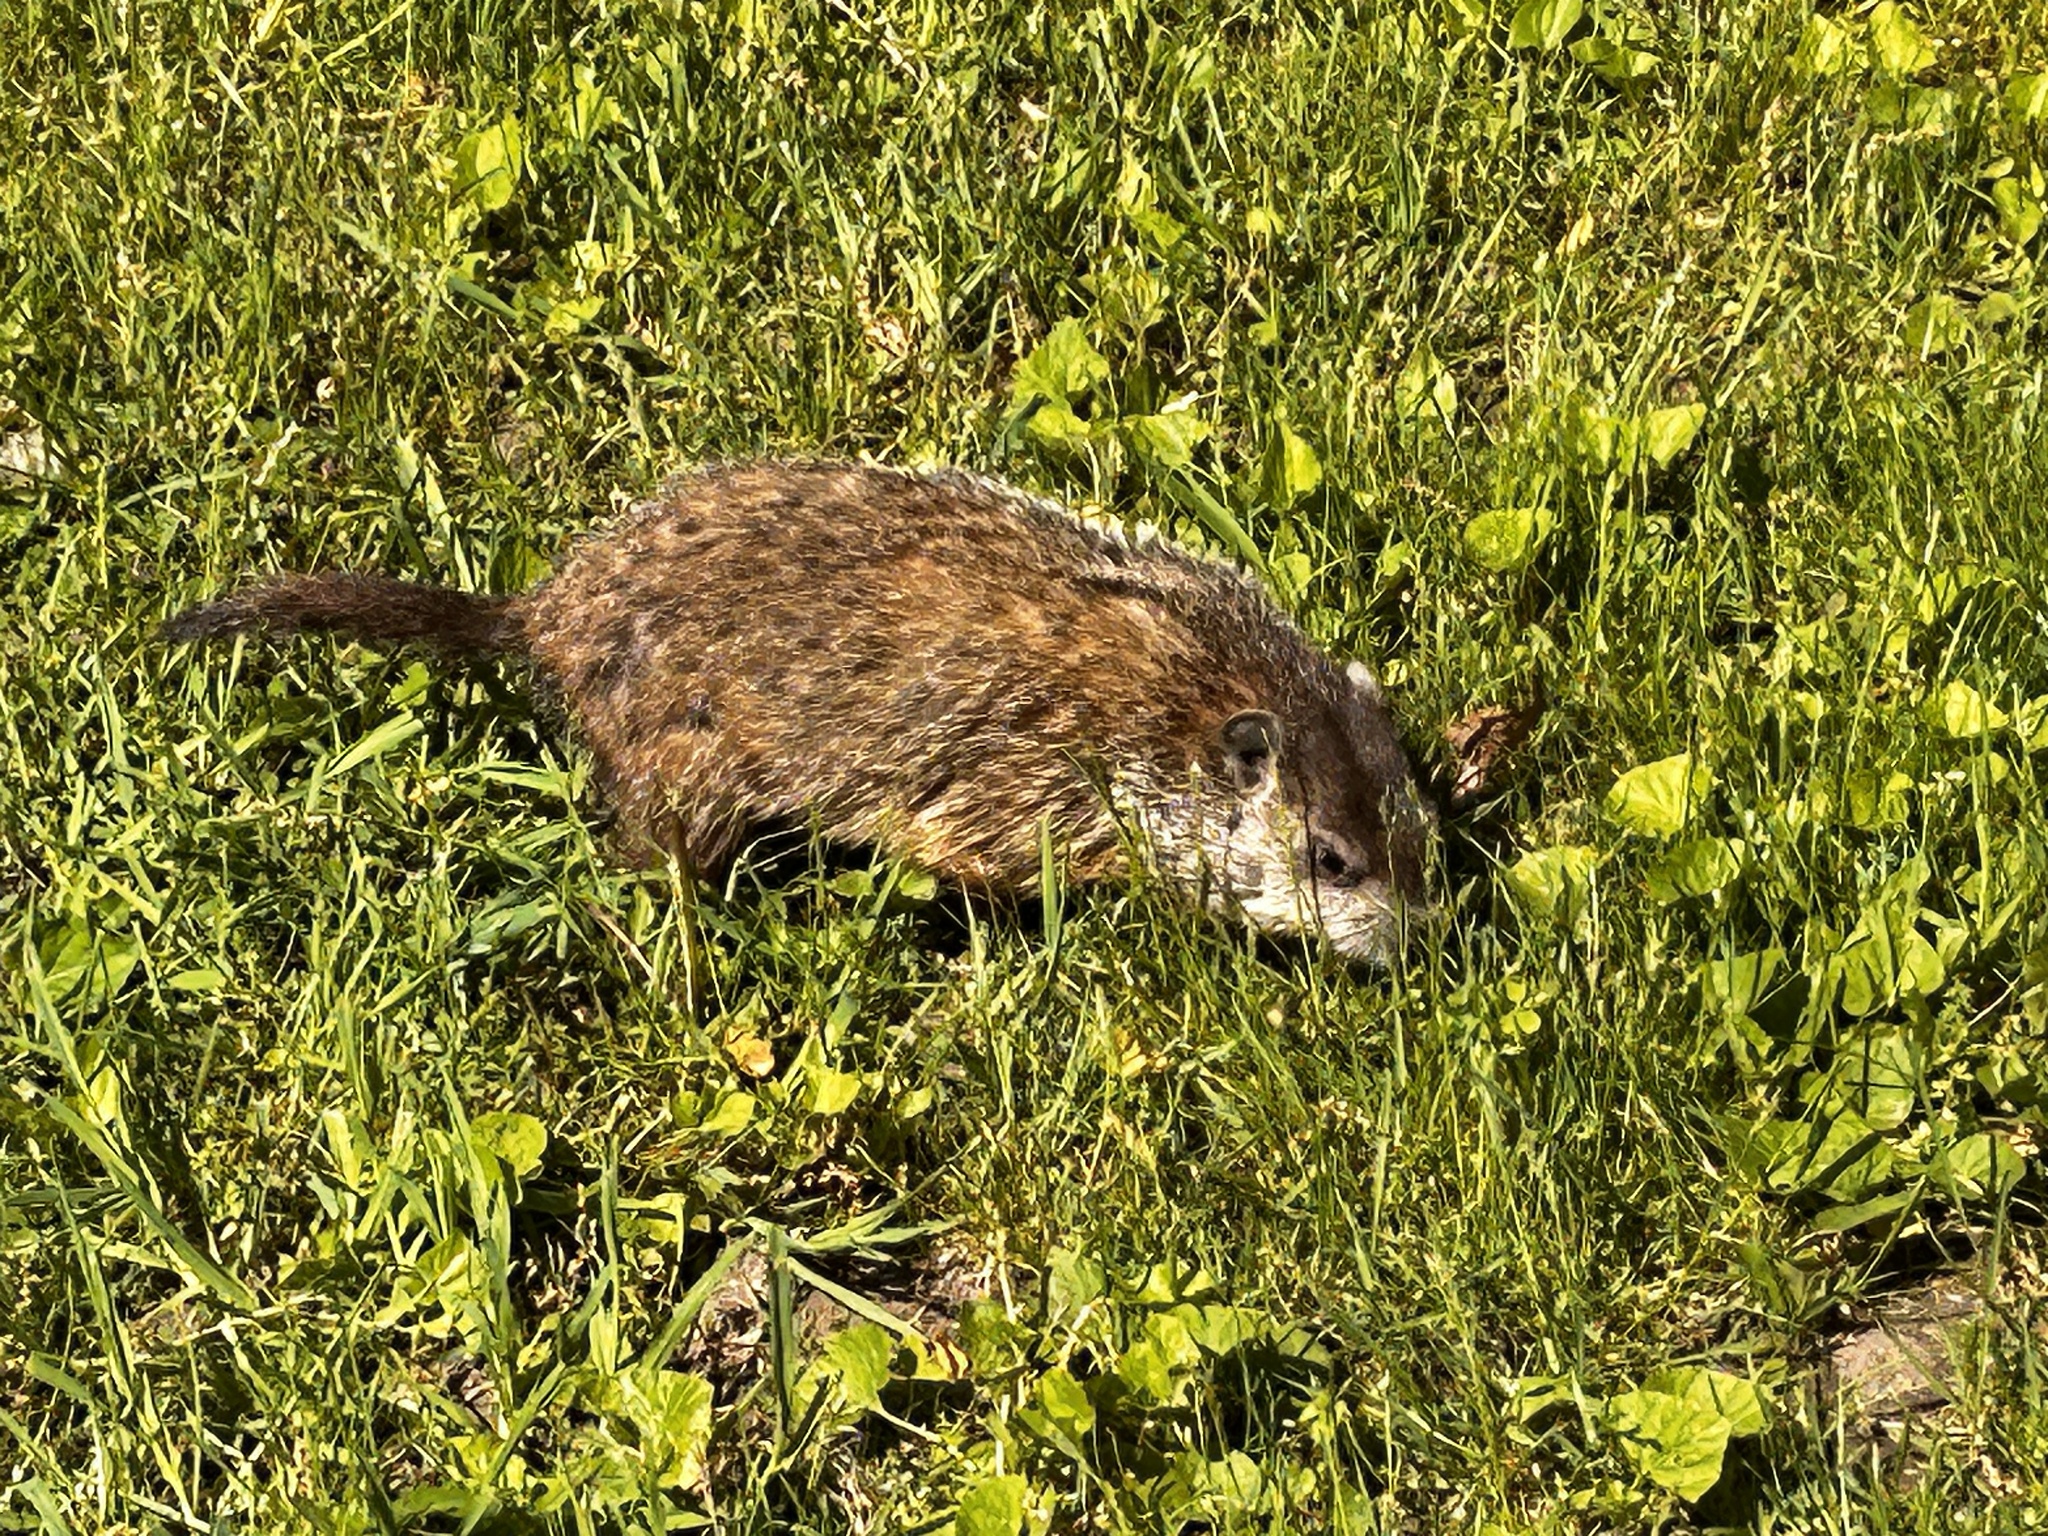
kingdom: Animalia
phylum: Chordata
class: Mammalia
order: Rodentia
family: Sciuridae
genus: Marmota
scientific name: Marmota monax
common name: Groundhog
